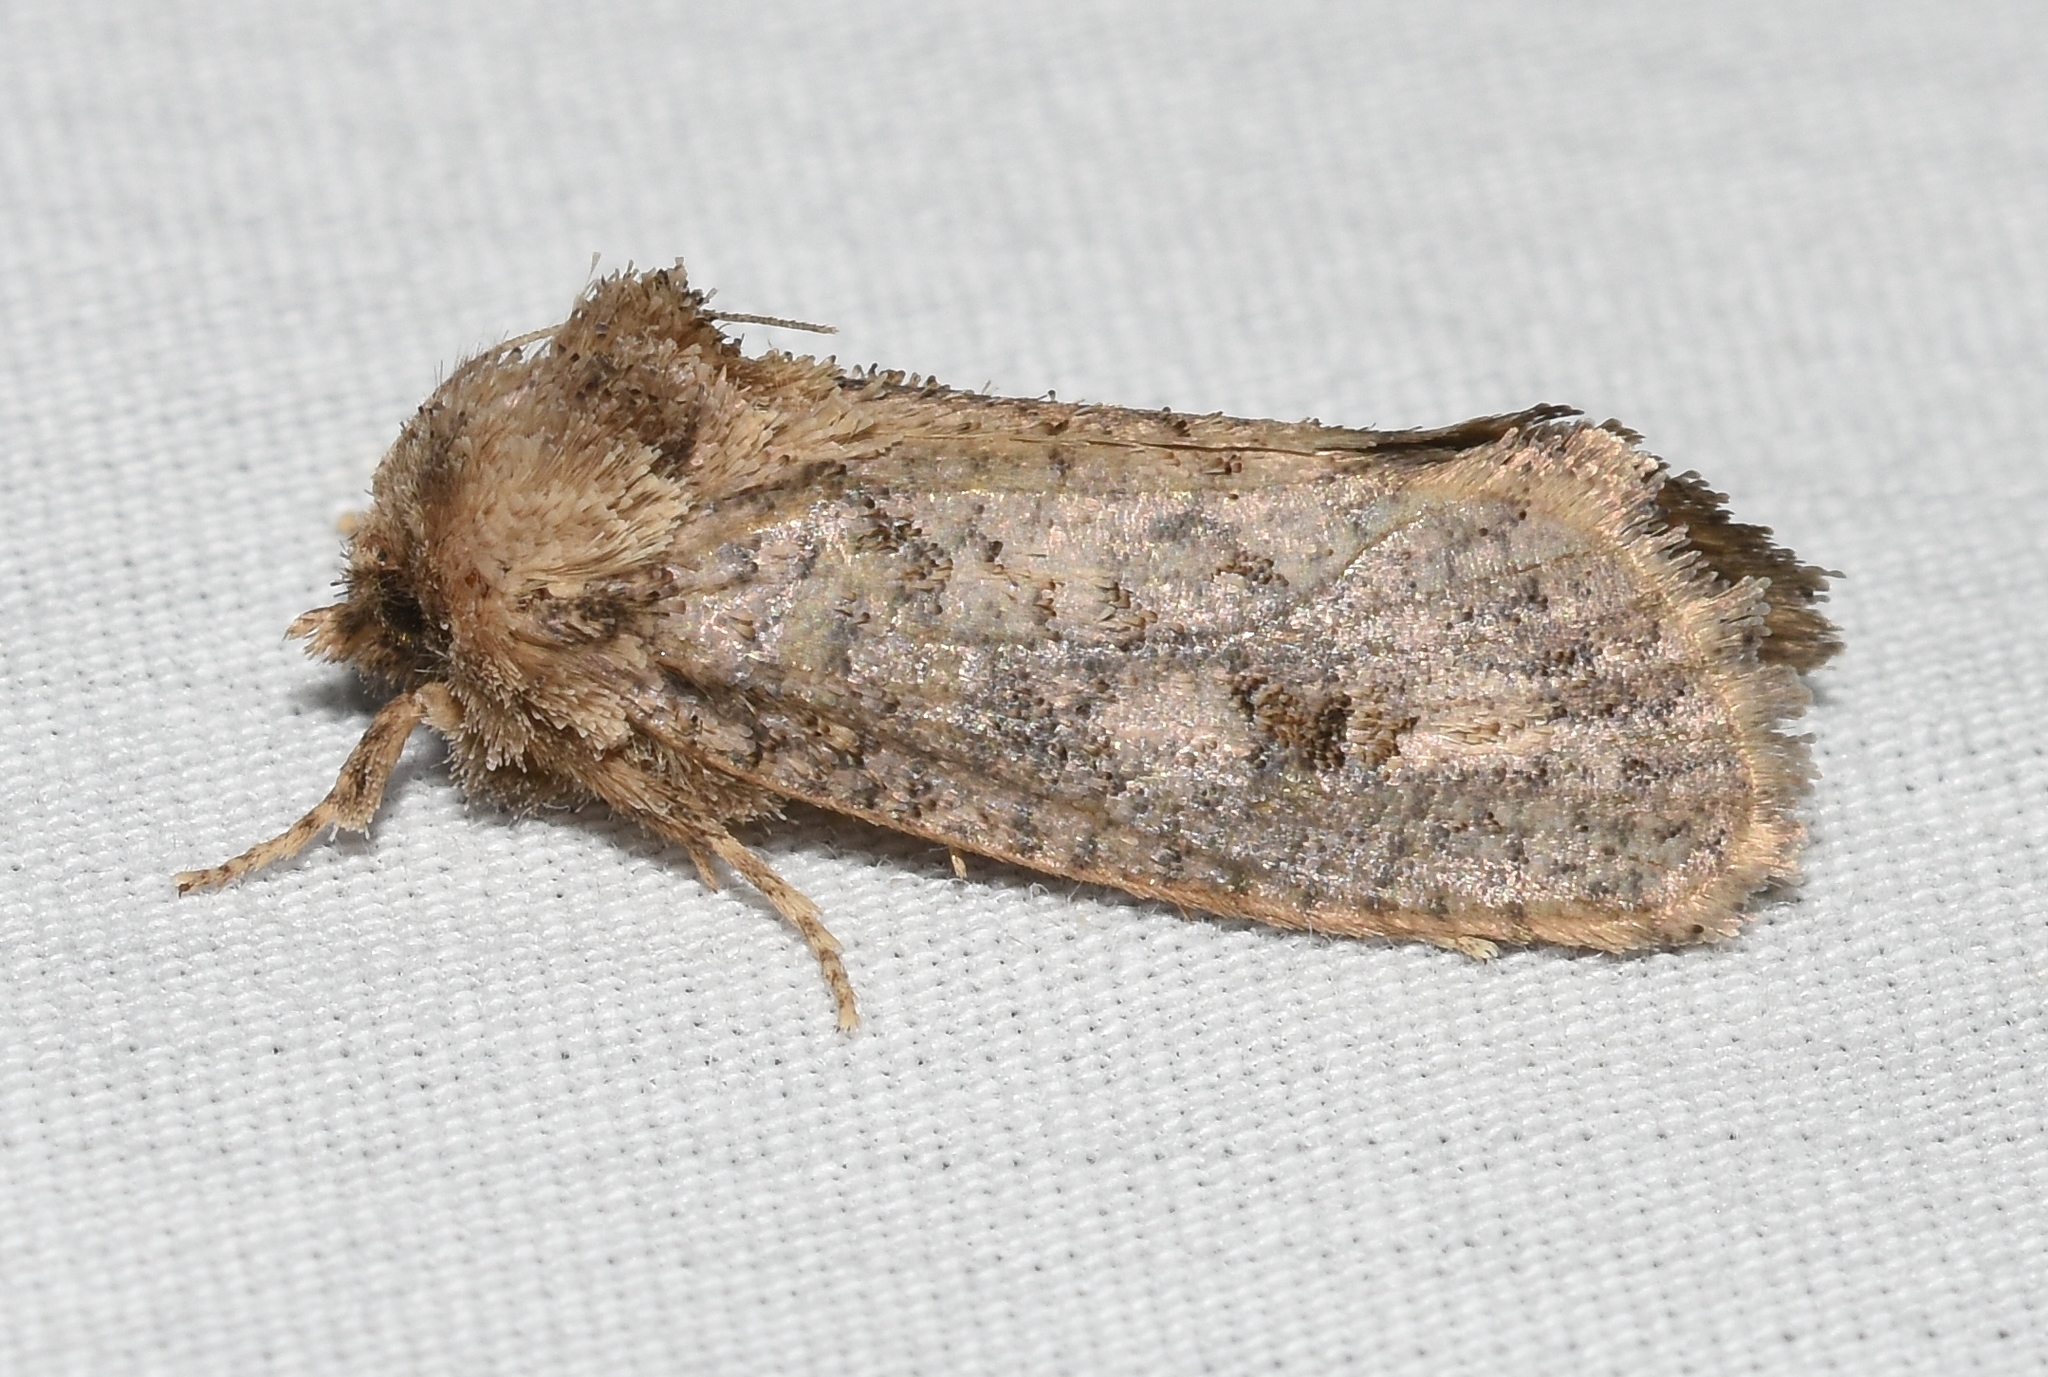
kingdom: Animalia
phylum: Arthropoda
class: Insecta
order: Lepidoptera
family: Tineidae
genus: Acrolophus
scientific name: Acrolophus arcanella
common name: Arcane grass tubeworm moth
